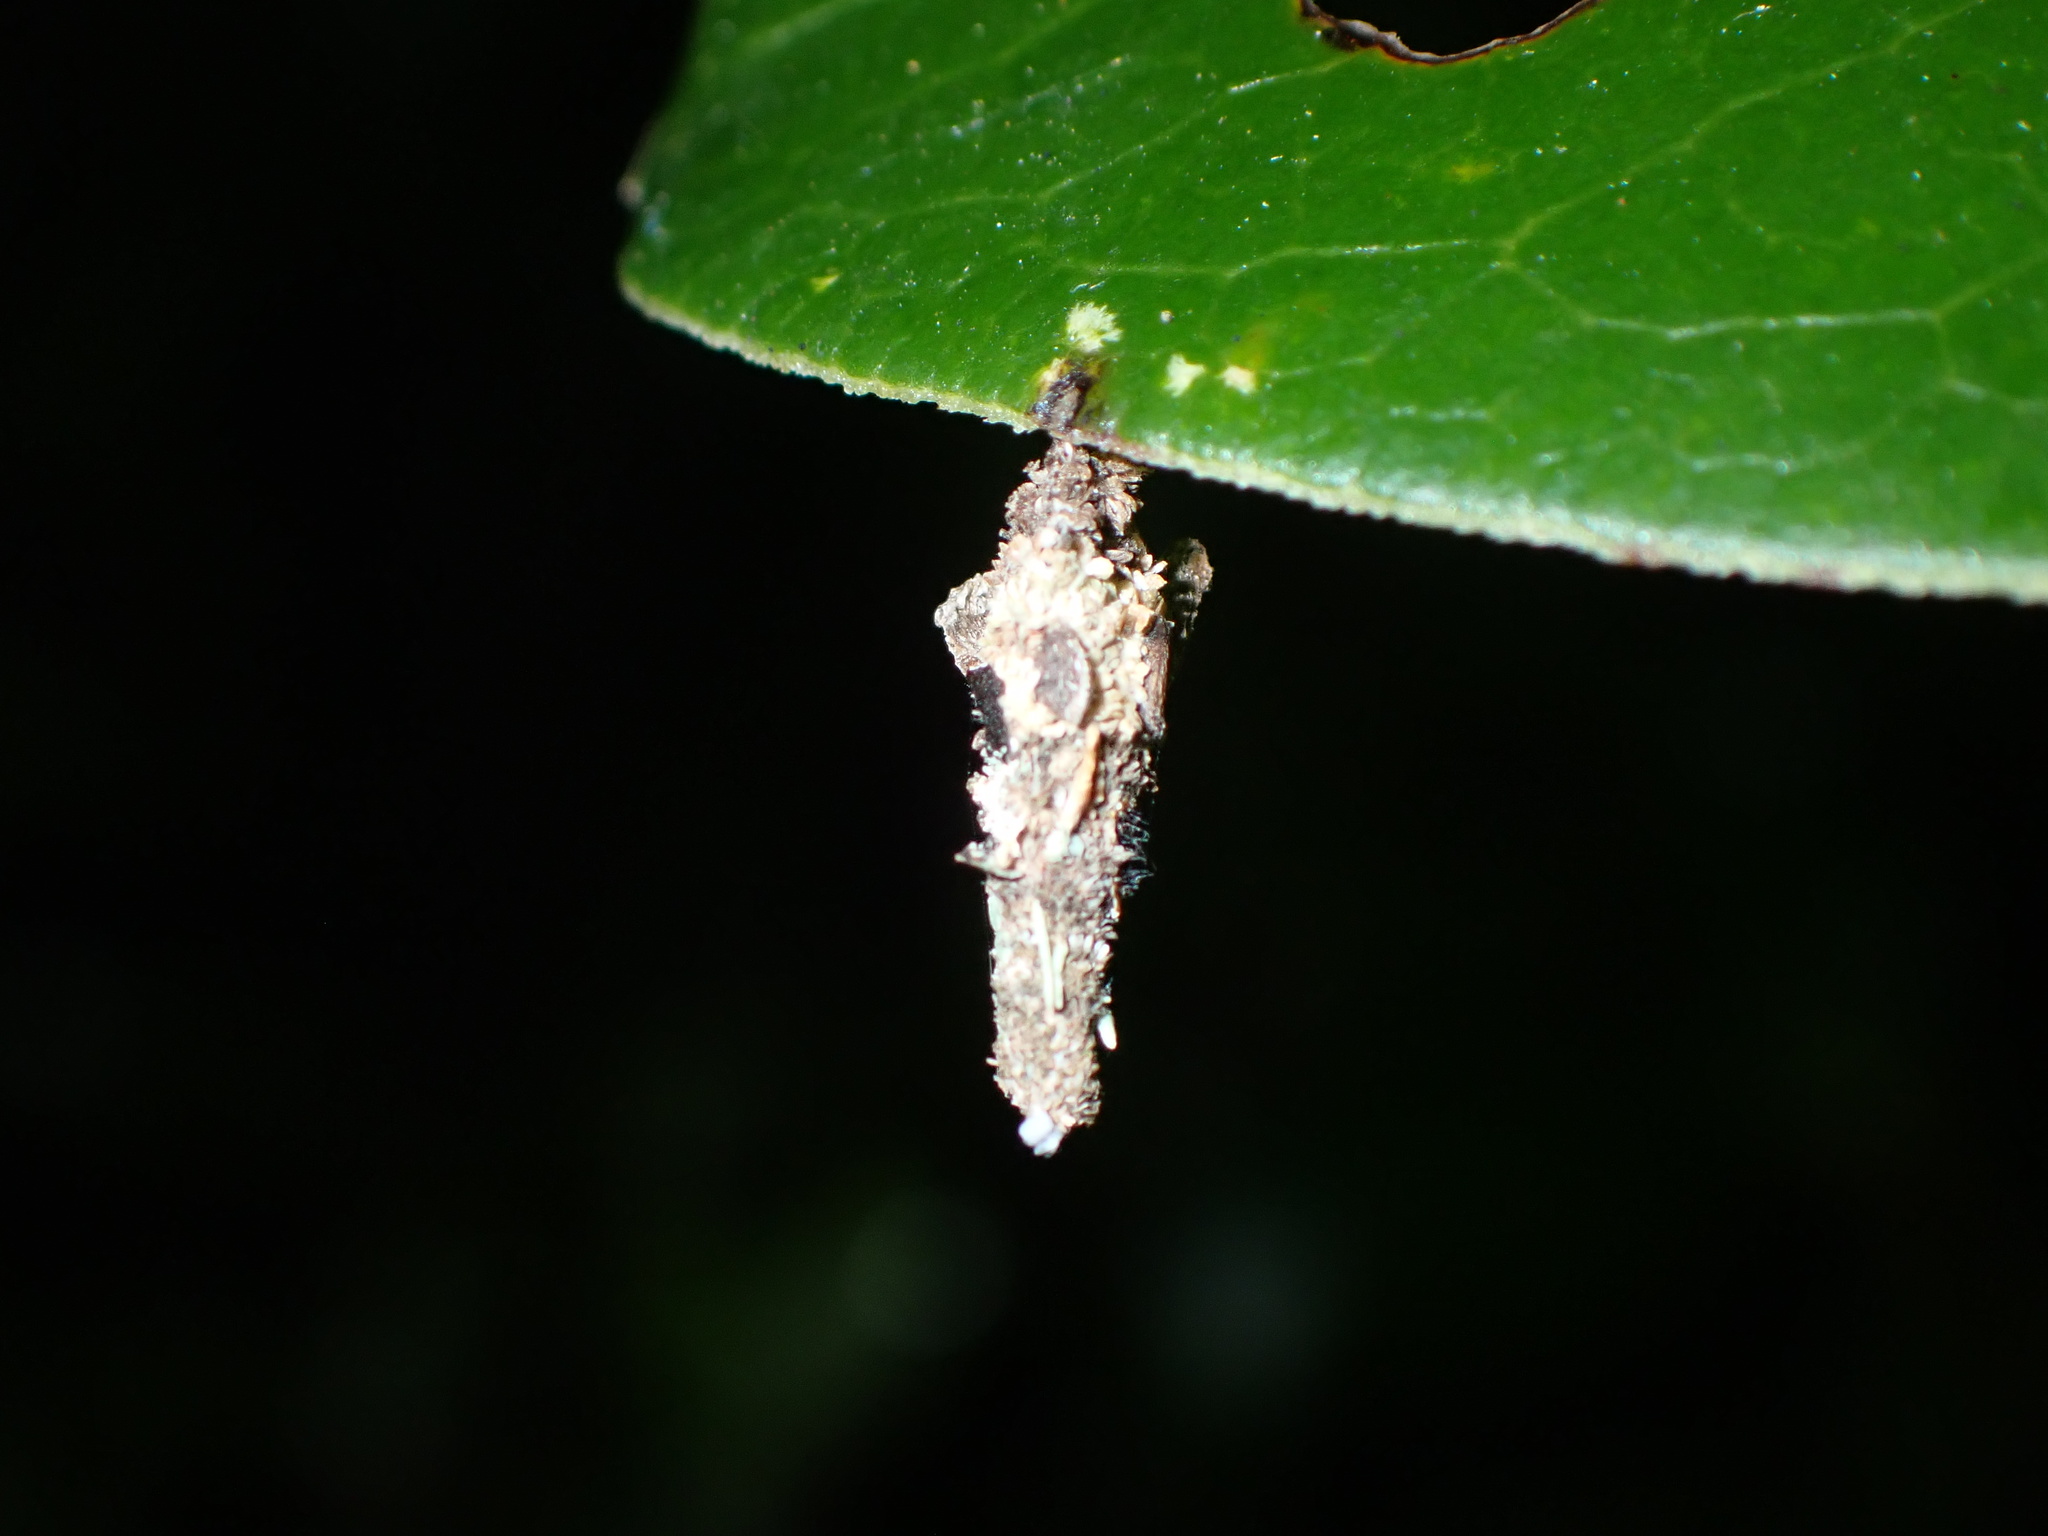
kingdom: Animalia
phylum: Arthropoda
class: Insecta
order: Lepidoptera
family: Psychidae
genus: Liothula
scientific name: Liothula omnivora
